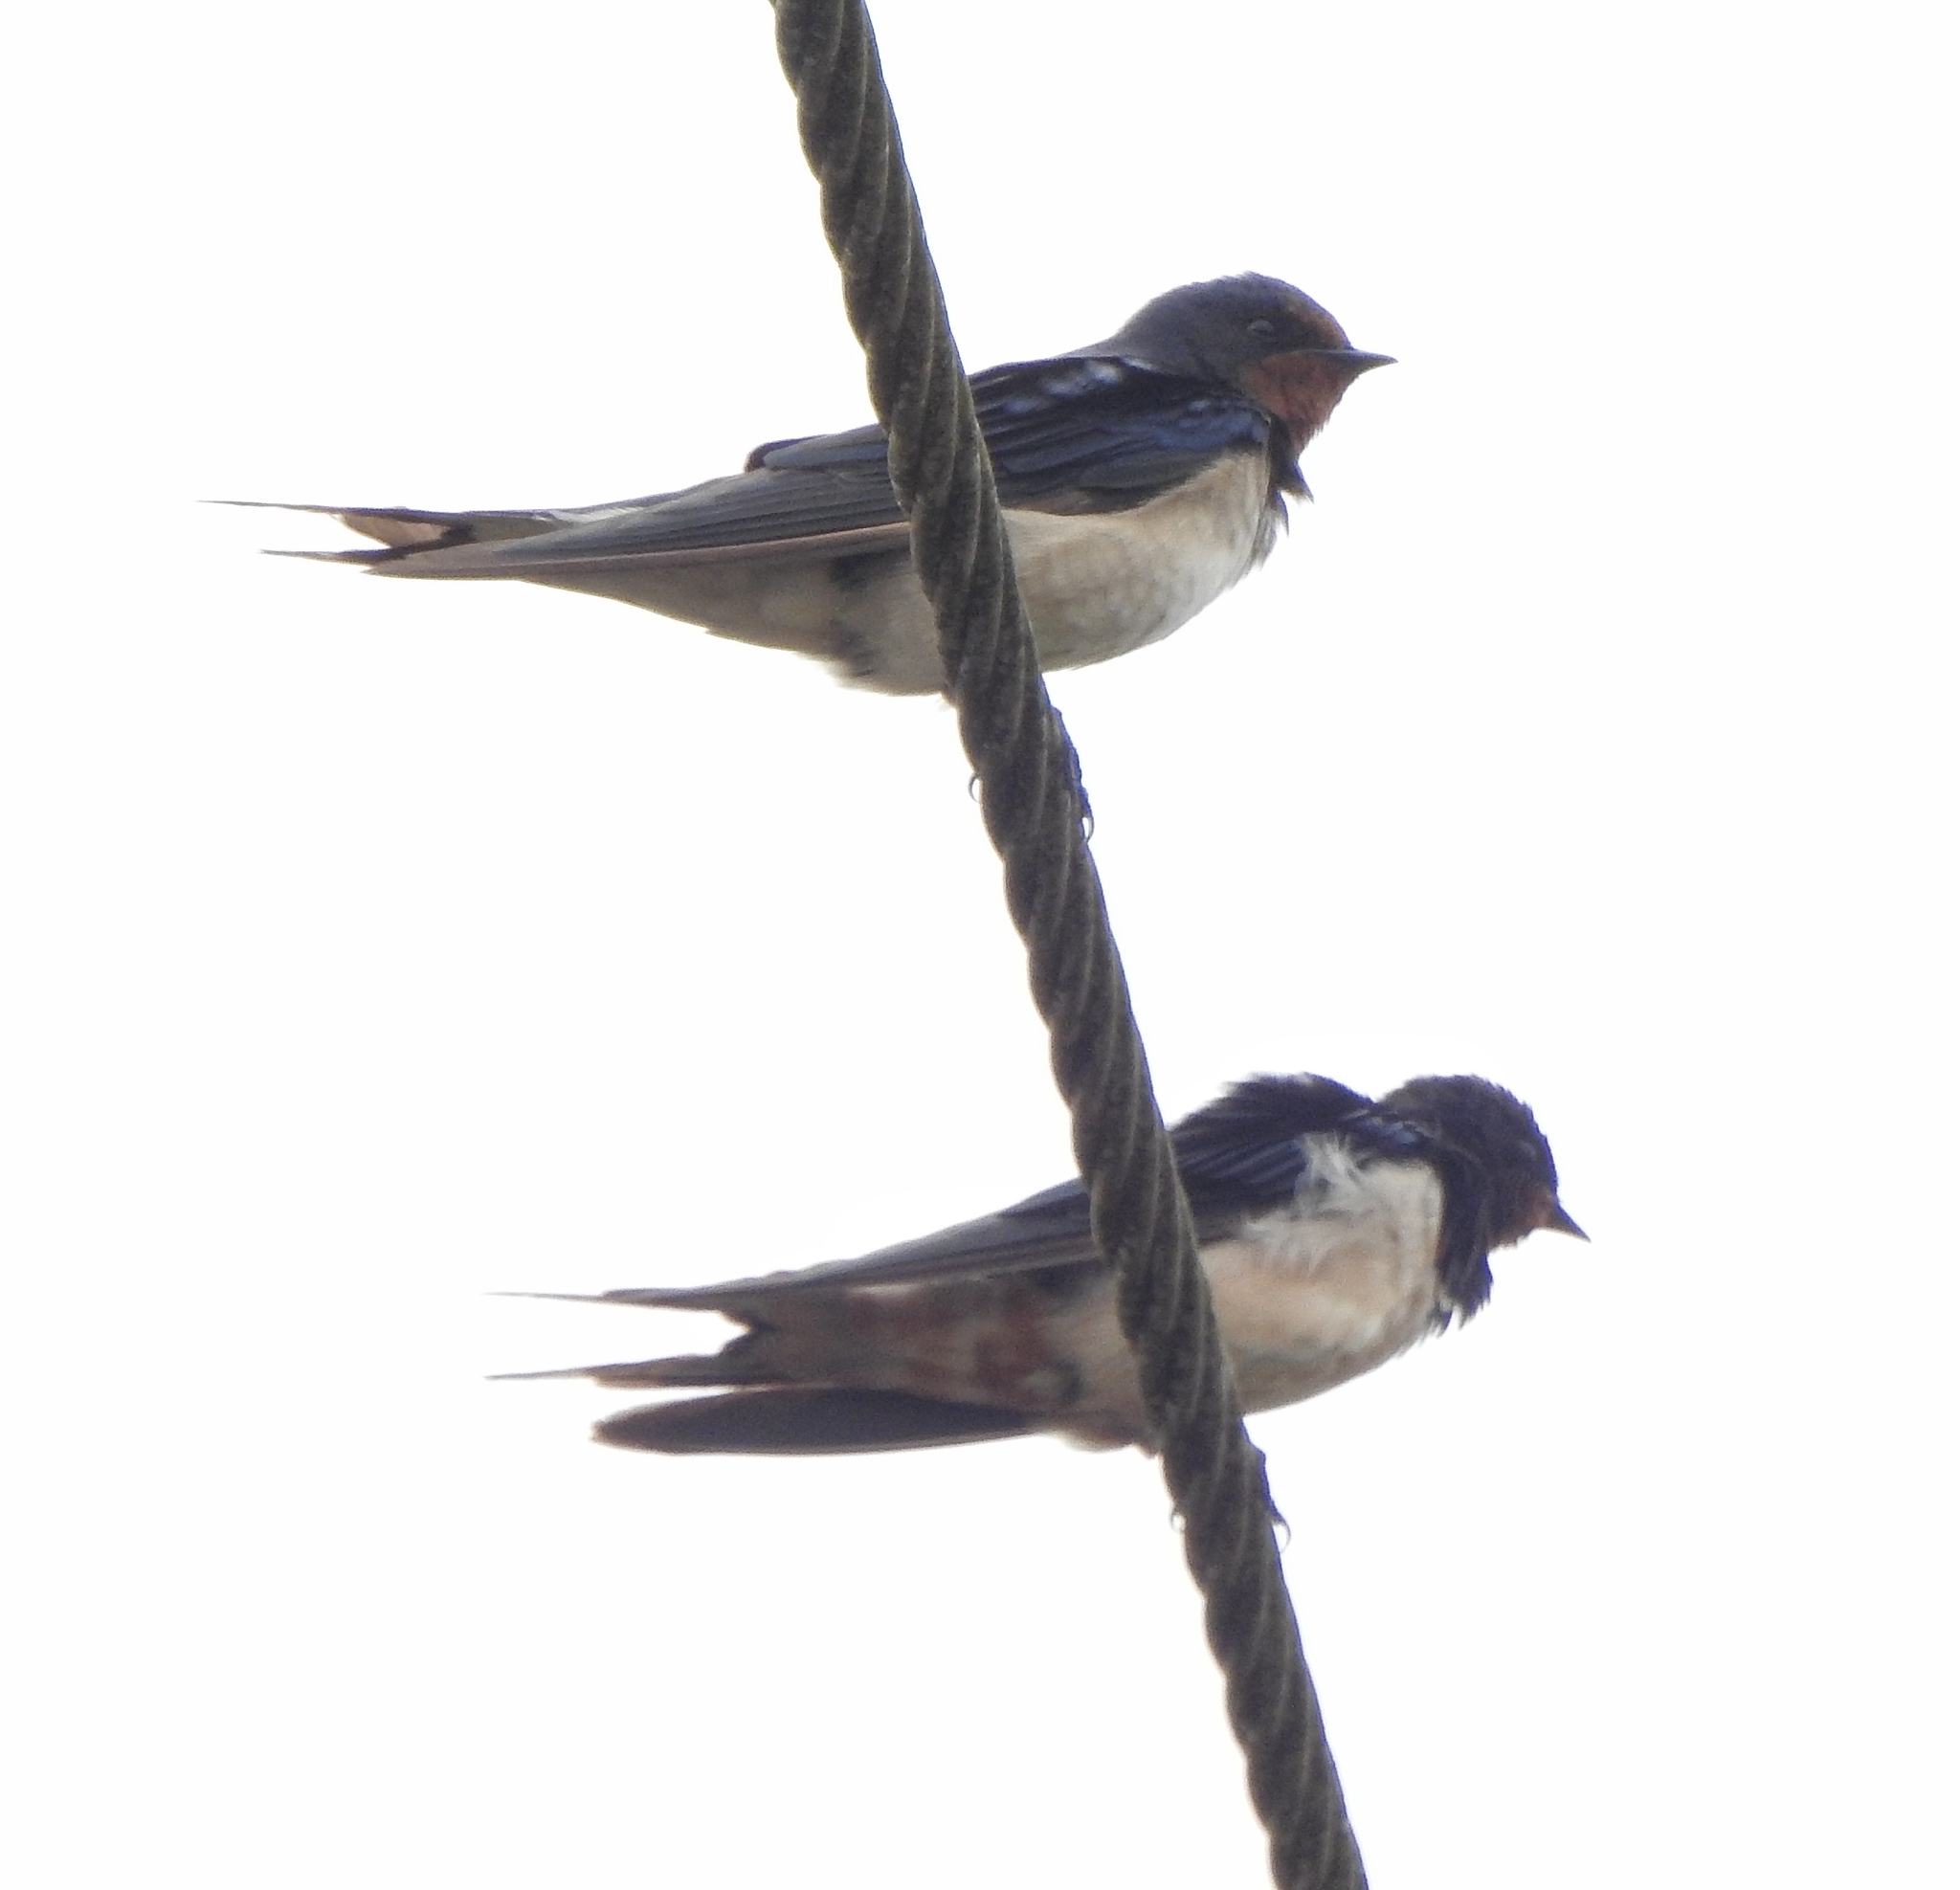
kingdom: Animalia
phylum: Chordata
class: Aves
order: Passeriformes
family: Hirundinidae
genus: Hirundo
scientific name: Hirundo rustica
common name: Barn swallow
